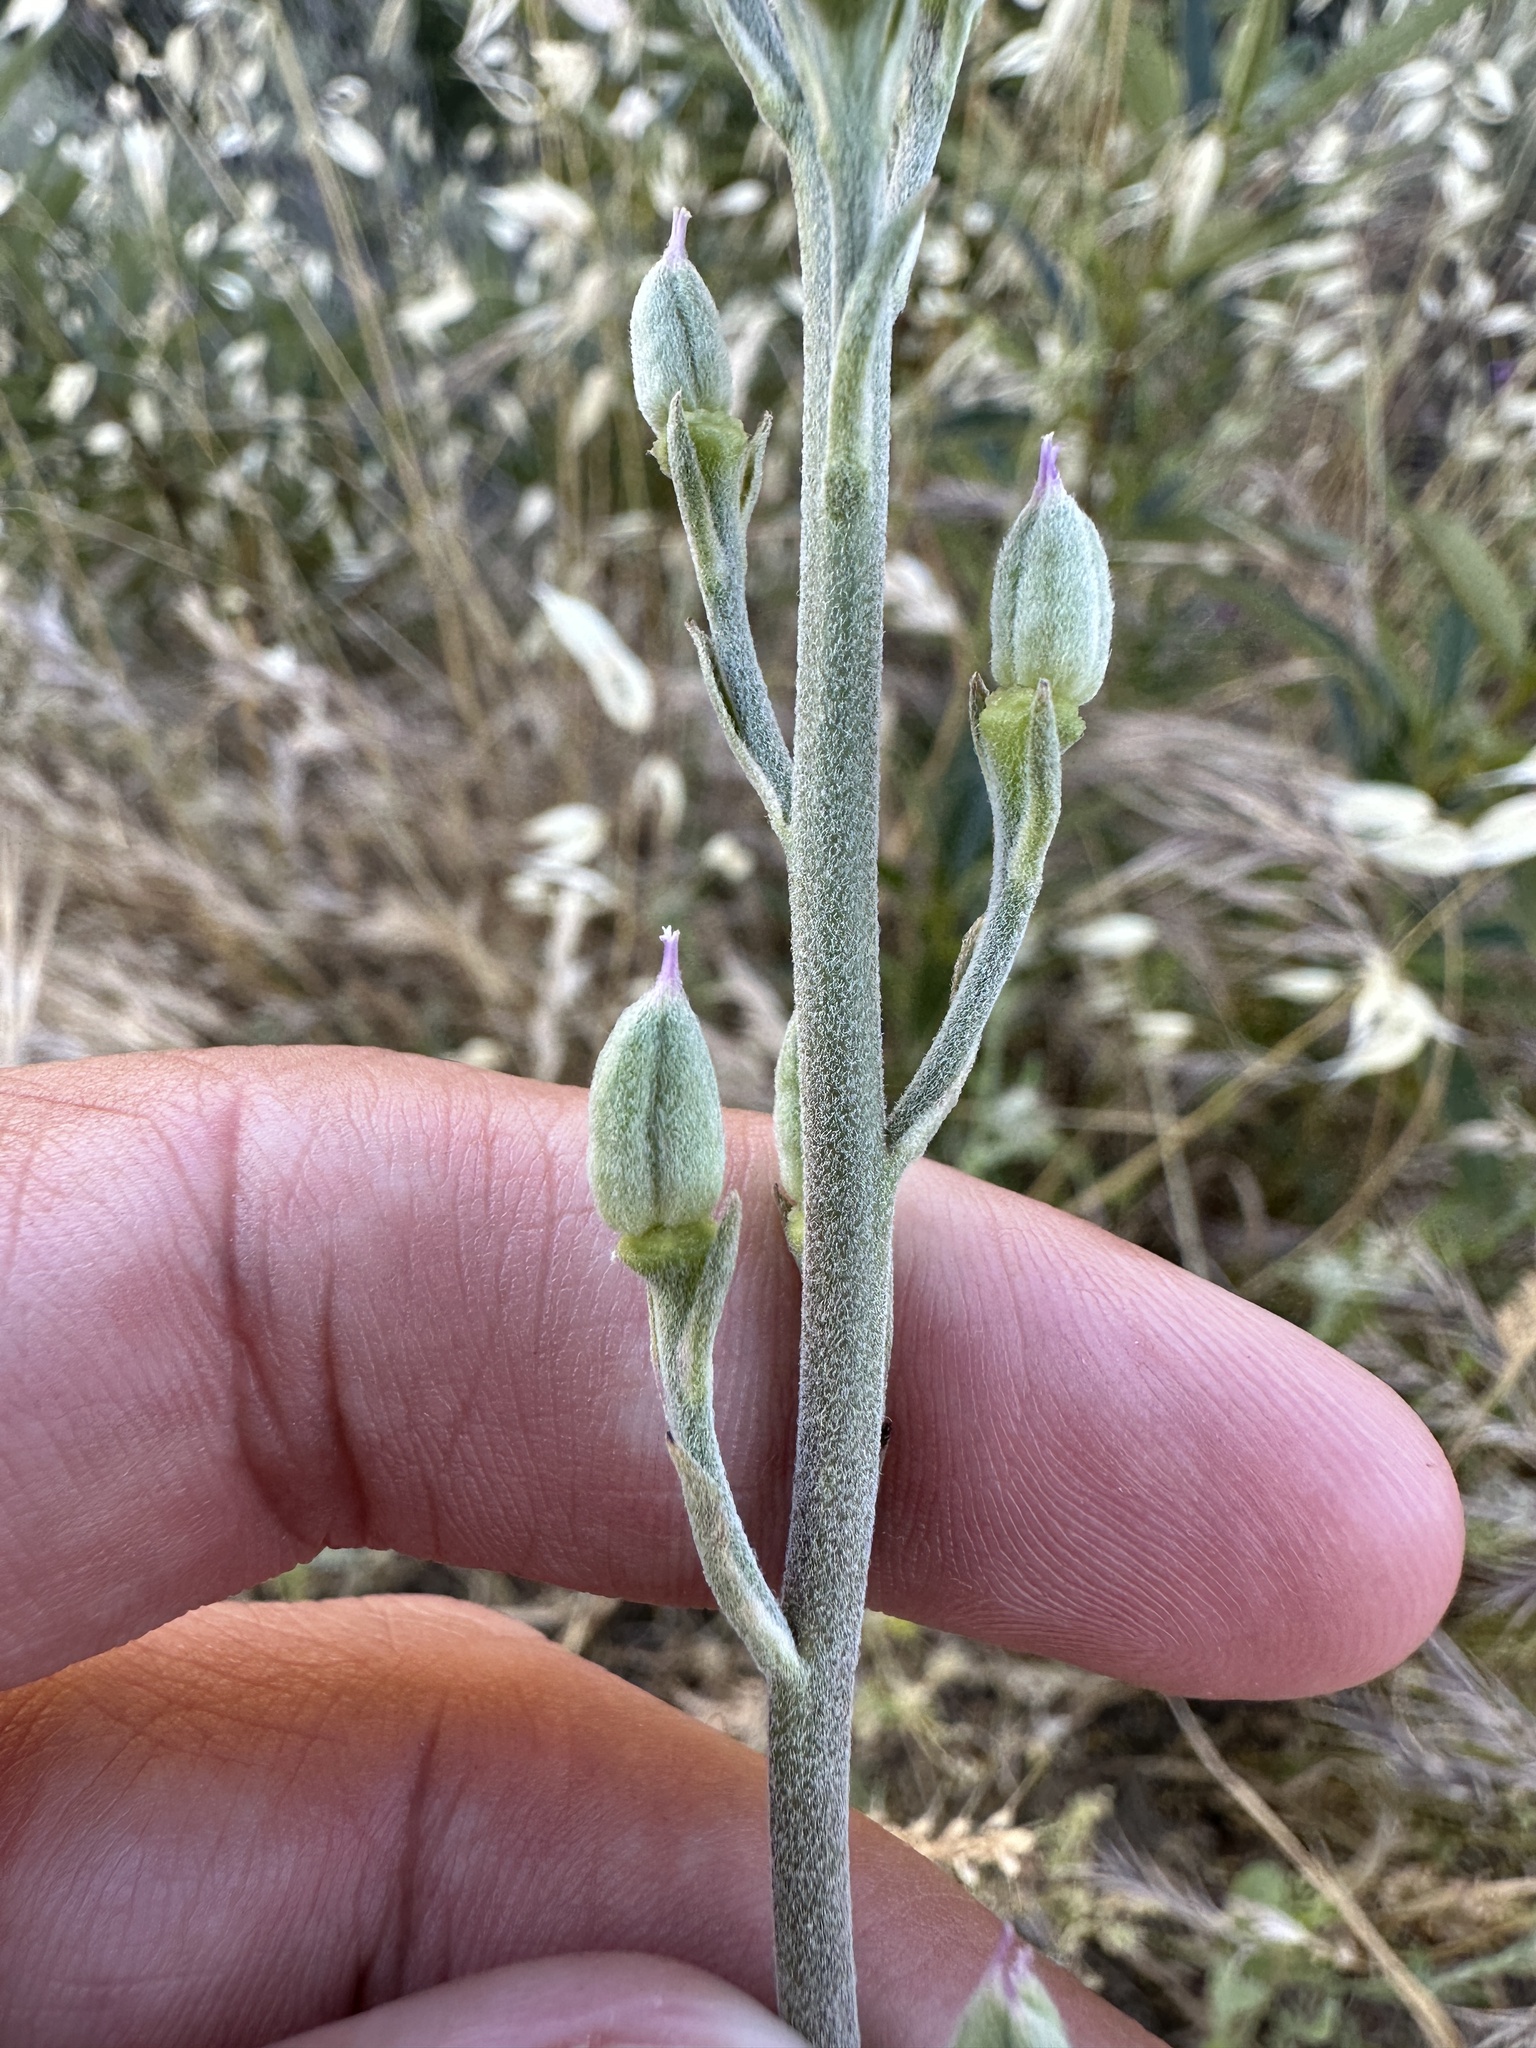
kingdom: Plantae
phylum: Tracheophyta
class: Magnoliopsida
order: Ranunculales
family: Ranunculaceae
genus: Delphinium
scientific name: Delphinium hansenii
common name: Hansen's larkspur
